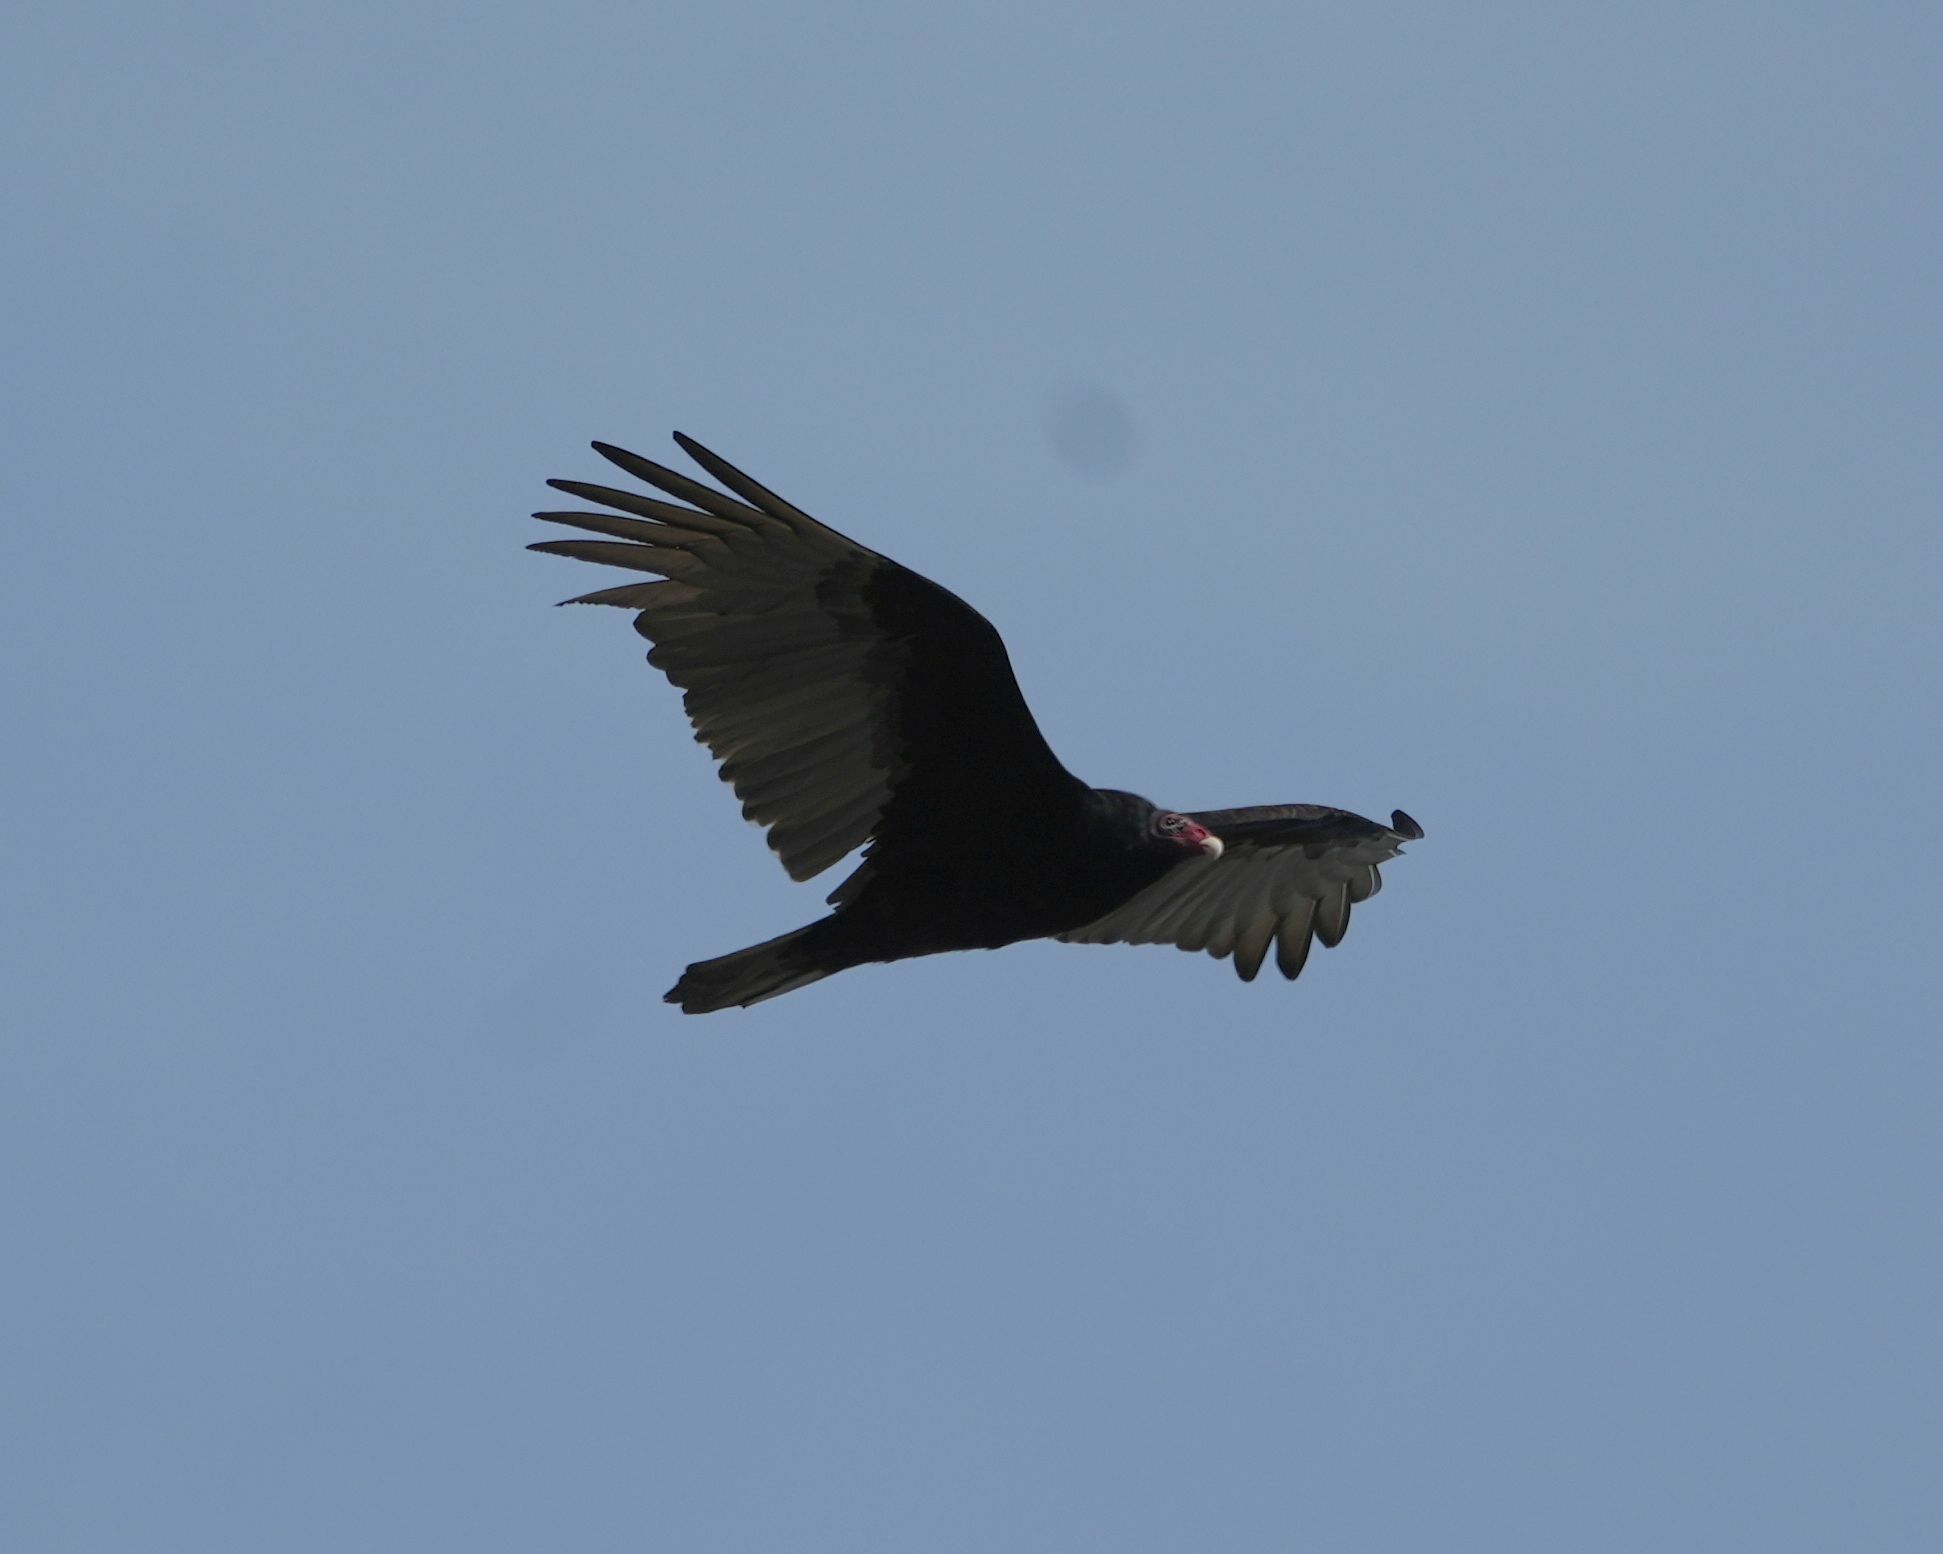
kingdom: Animalia
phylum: Chordata
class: Aves
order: Accipitriformes
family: Cathartidae
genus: Cathartes
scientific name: Cathartes aura
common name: Turkey vulture
